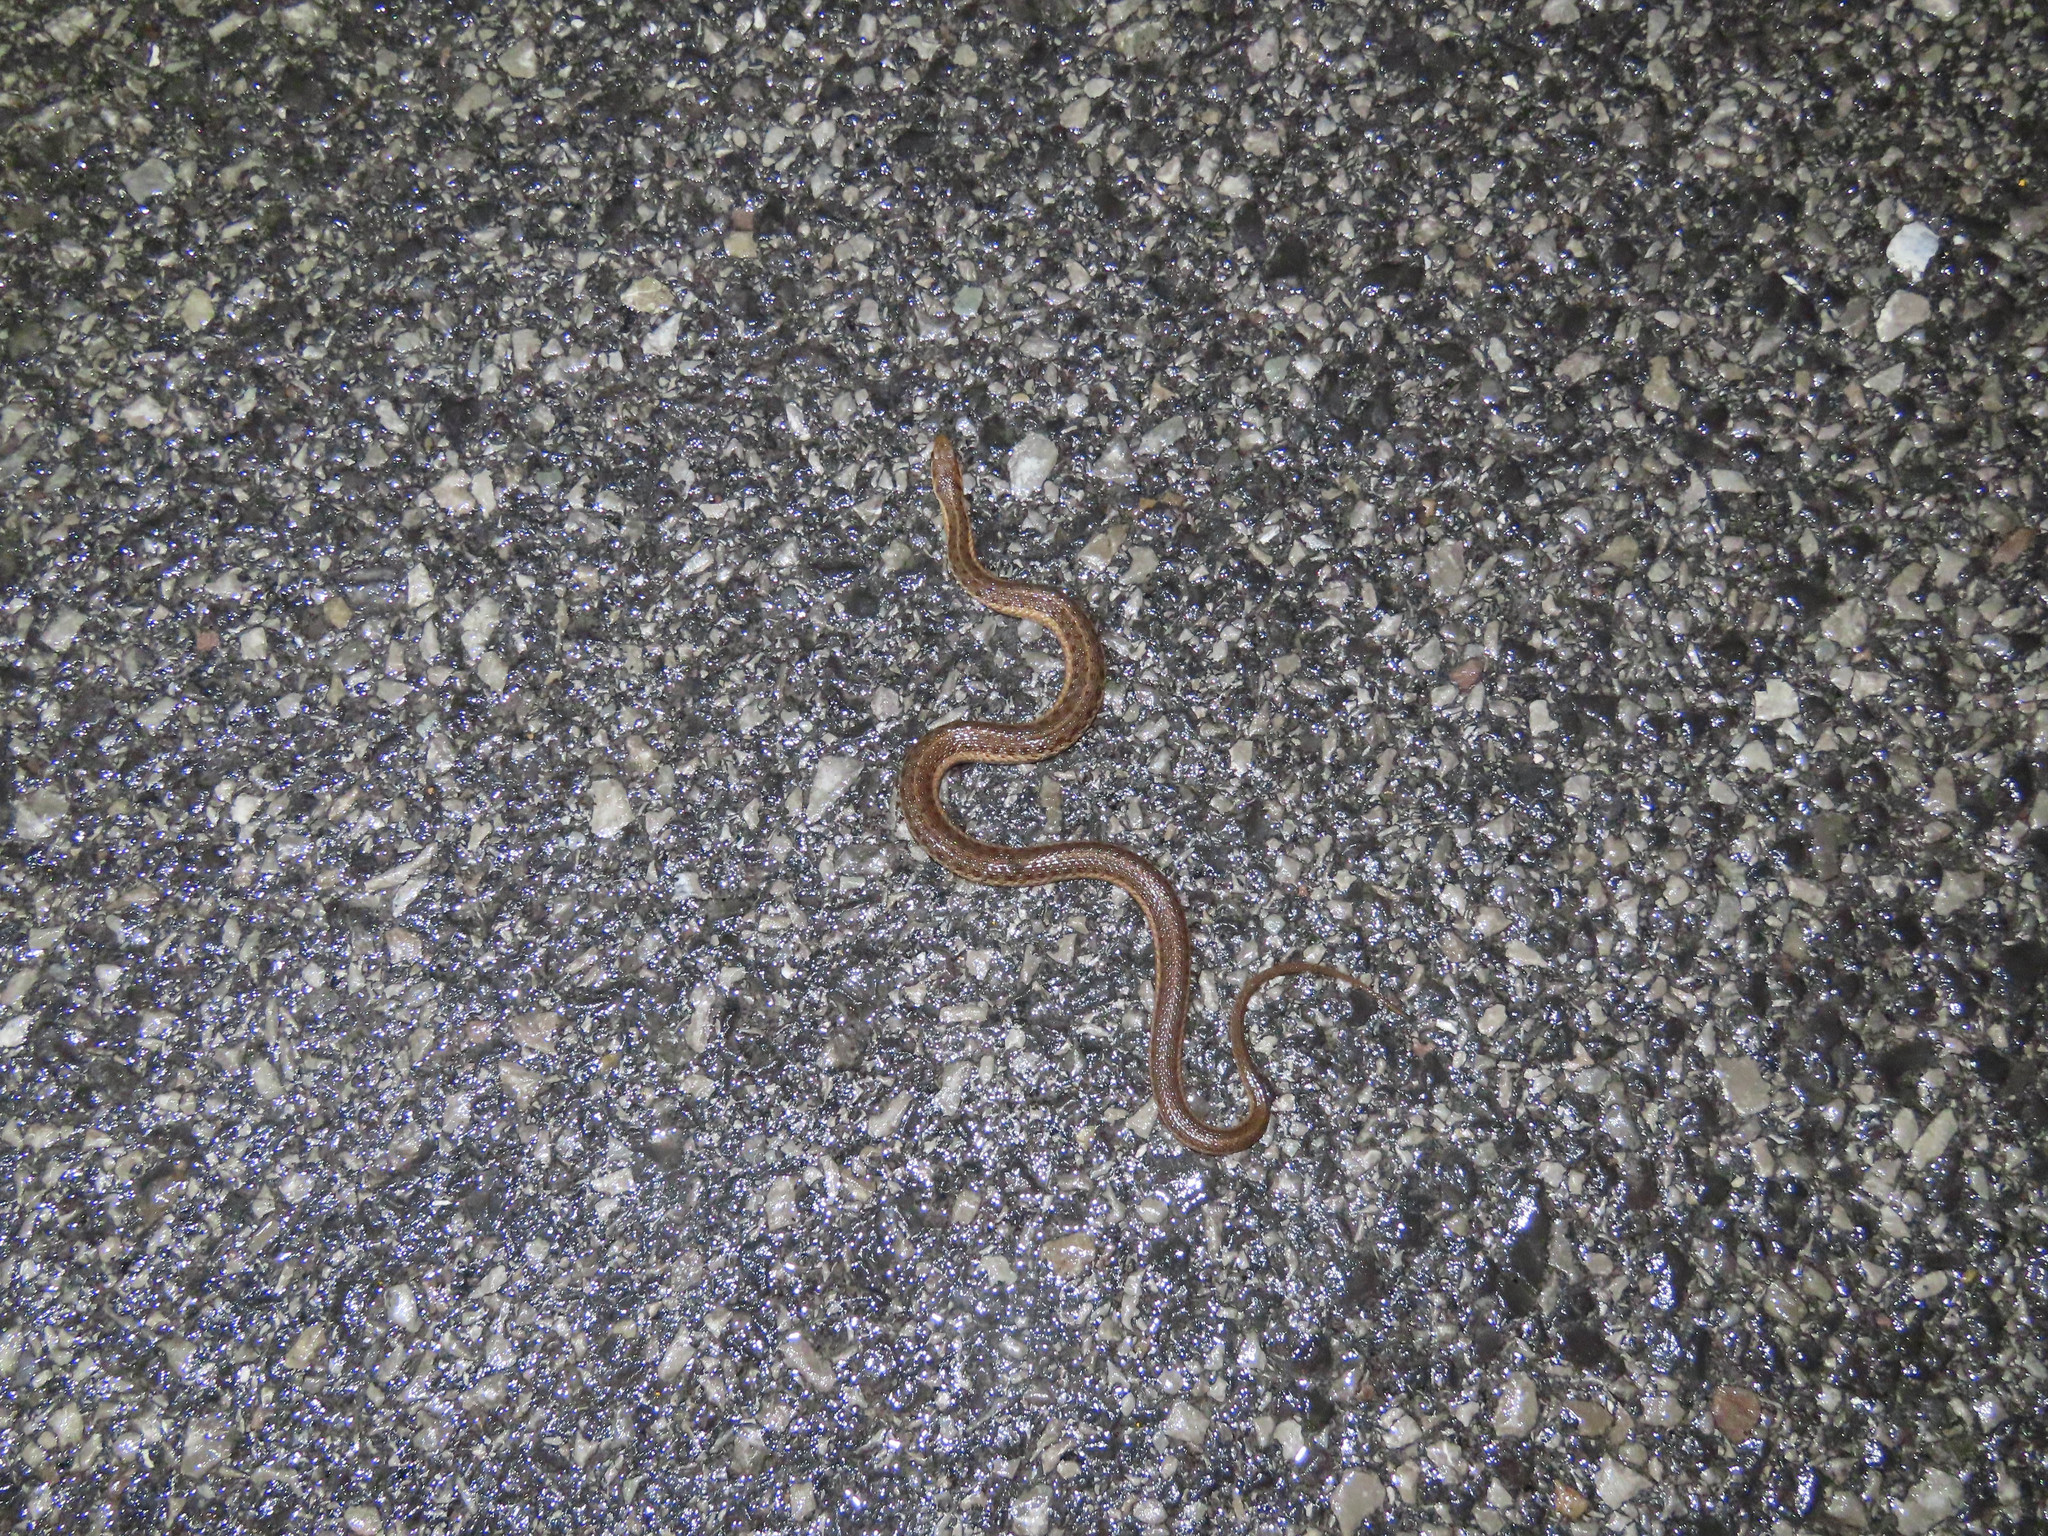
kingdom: Animalia
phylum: Chordata
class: Squamata
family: Colubridae
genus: Thamnophis
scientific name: Thamnophis sirtalis
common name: Common garter snake
